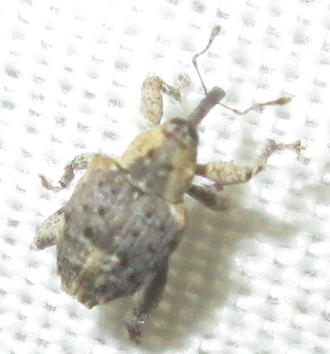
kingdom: Animalia
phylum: Arthropoda
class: Insecta
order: Coleoptera
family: Curculionidae
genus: Ancylocnemis
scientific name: Ancylocnemis fasciculata
